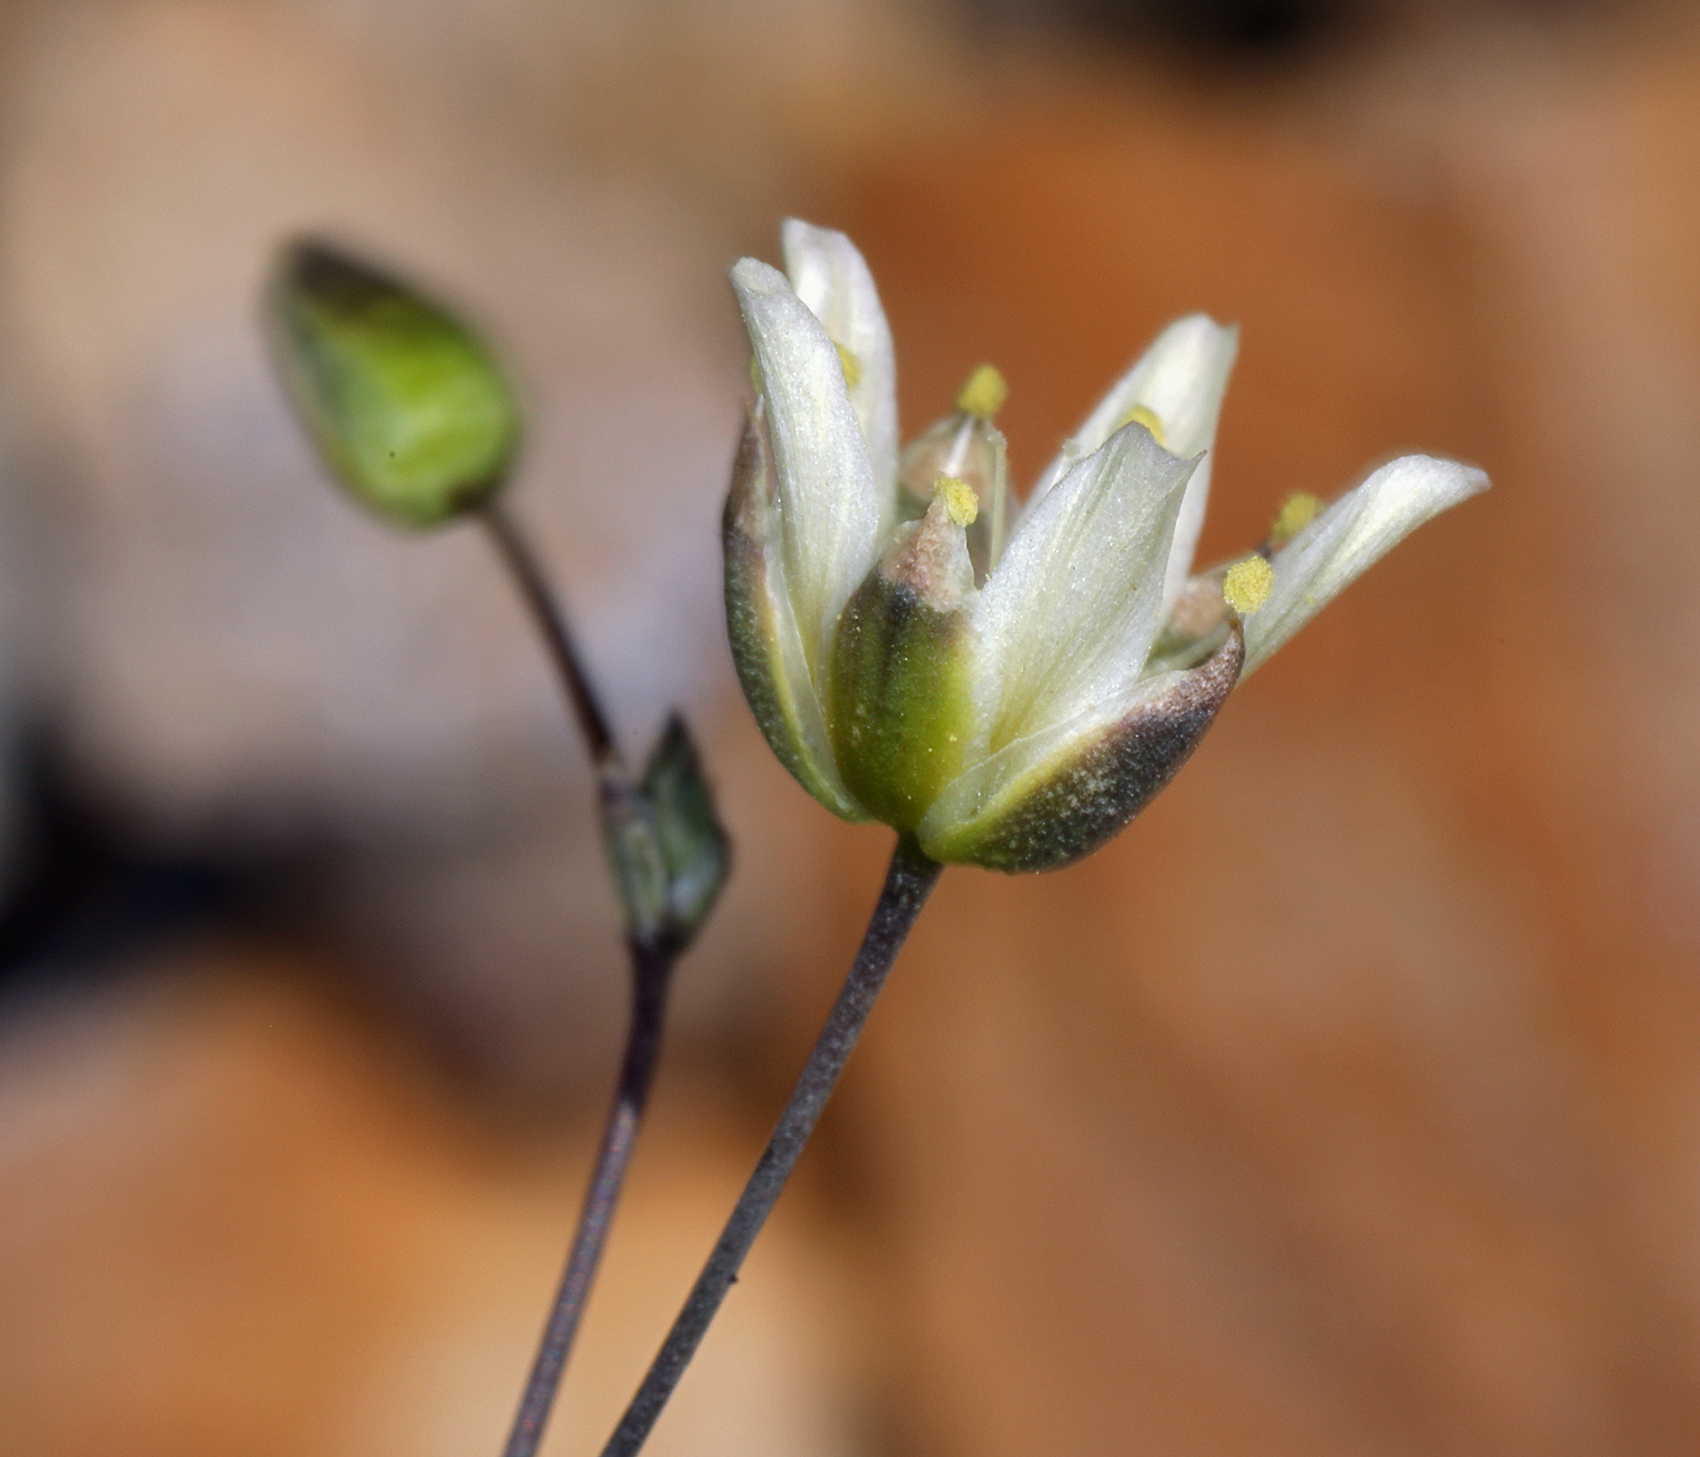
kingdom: Plantae
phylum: Tracheophyta
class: Magnoliopsida
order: Caryophyllales
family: Caryophyllaceae
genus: Eremogone
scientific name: Eremogone macradenia
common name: Mohave sandwort
